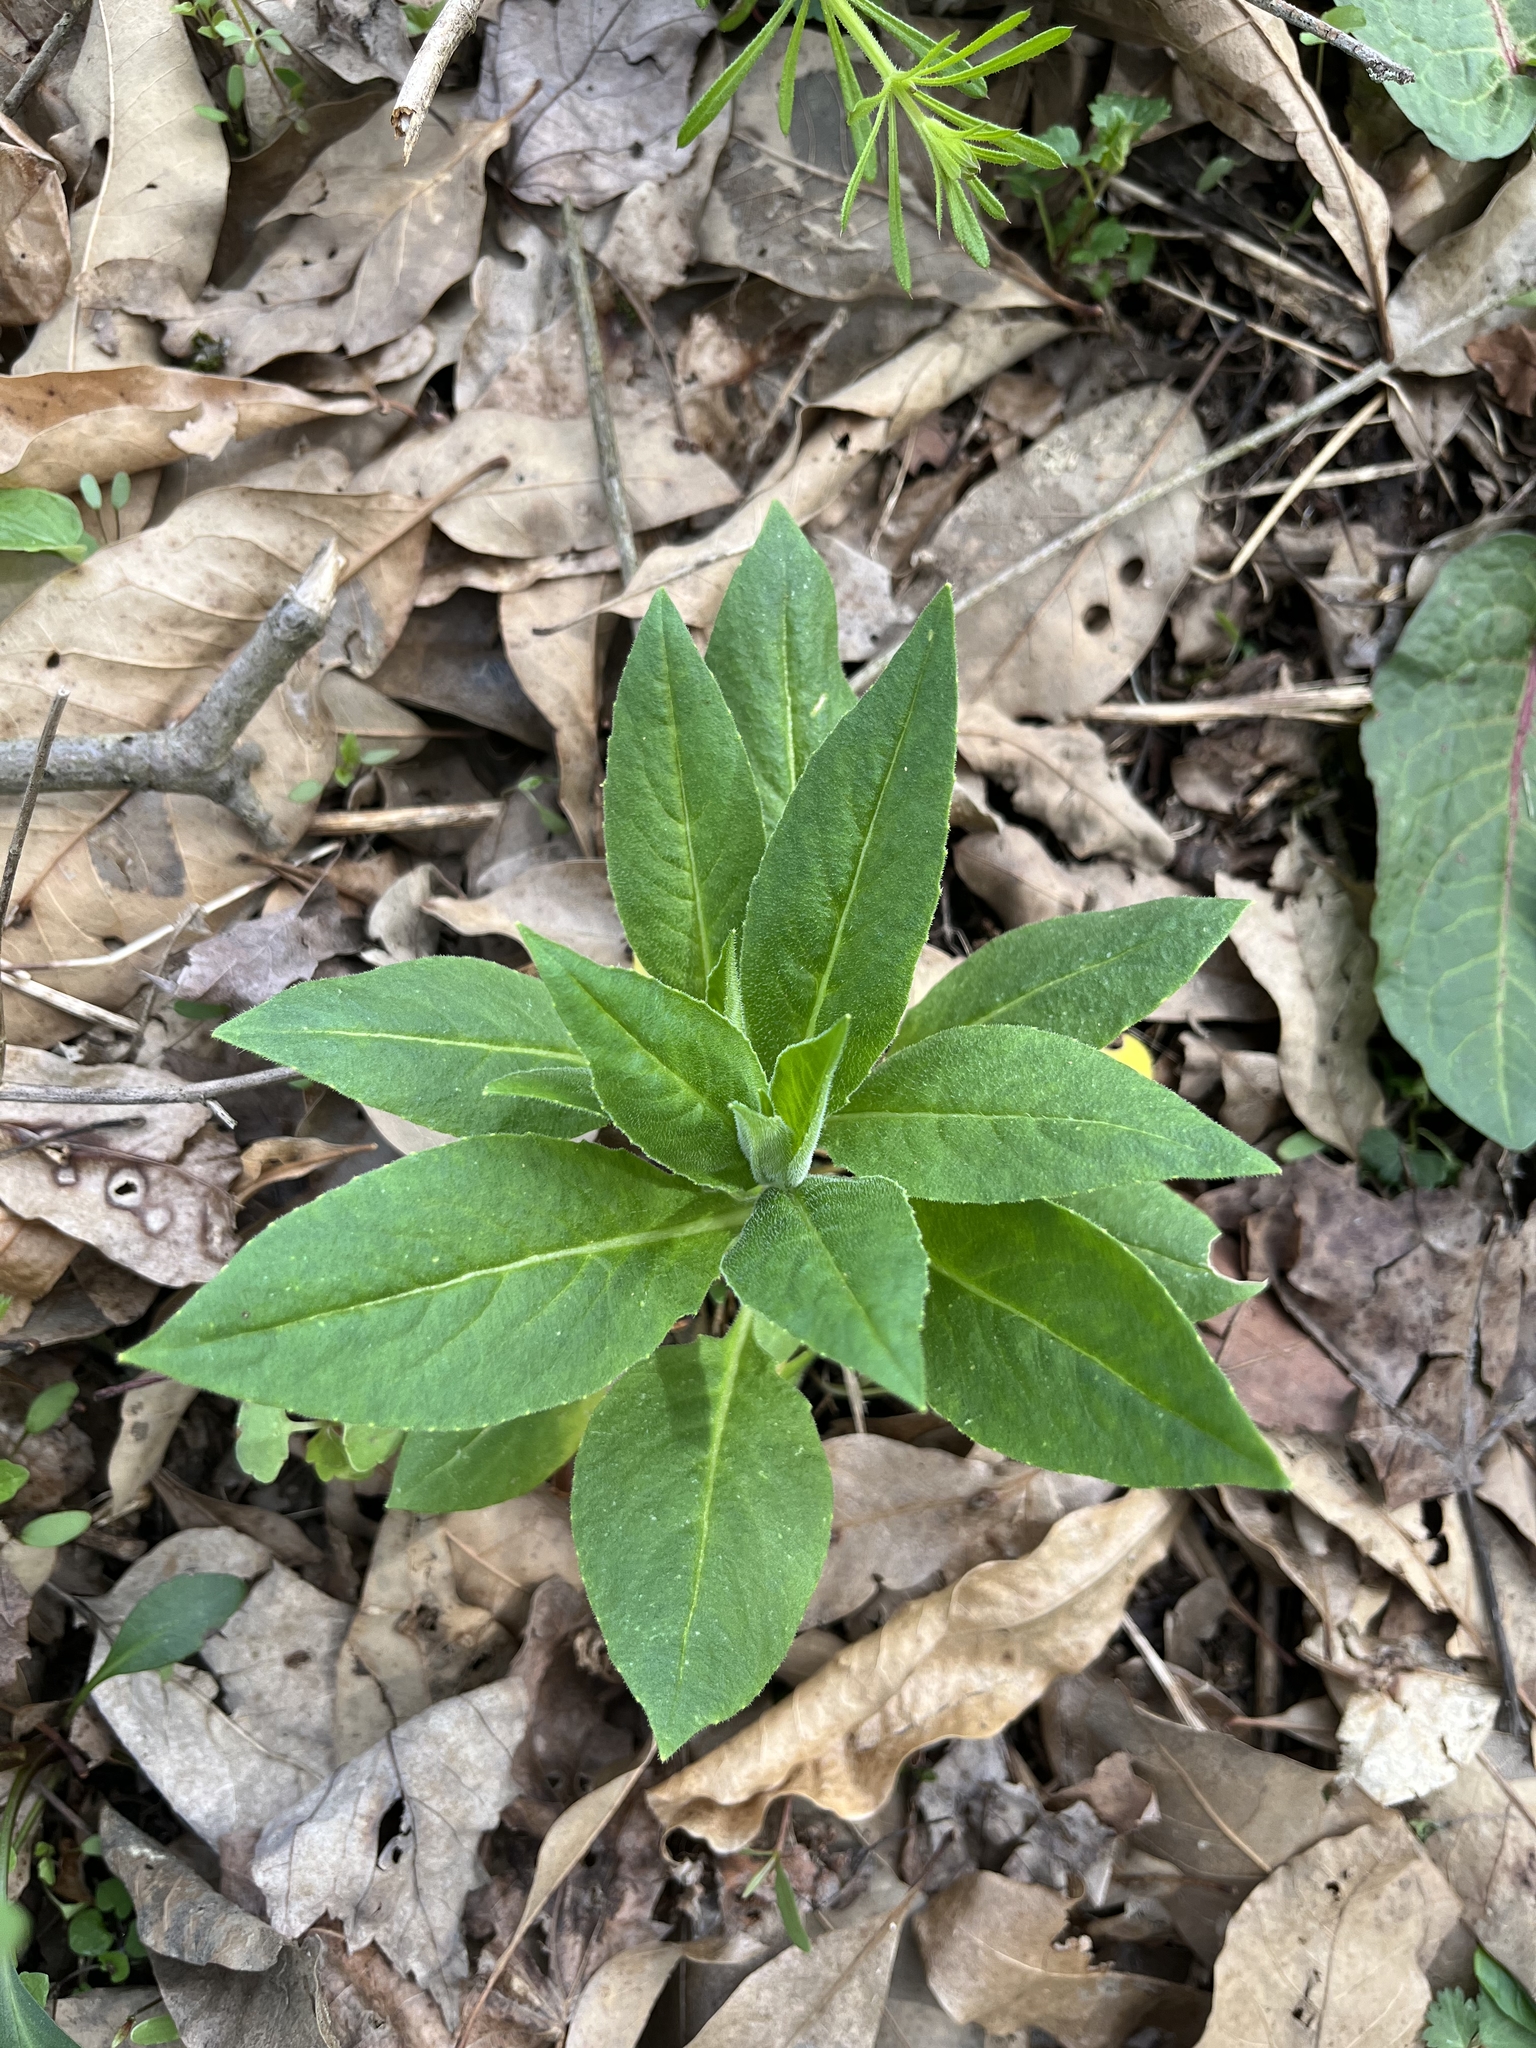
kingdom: Plantae
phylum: Tracheophyta
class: Magnoliopsida
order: Brassicales
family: Brassicaceae
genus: Hesperis
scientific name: Hesperis matronalis
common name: Dame's-violet
